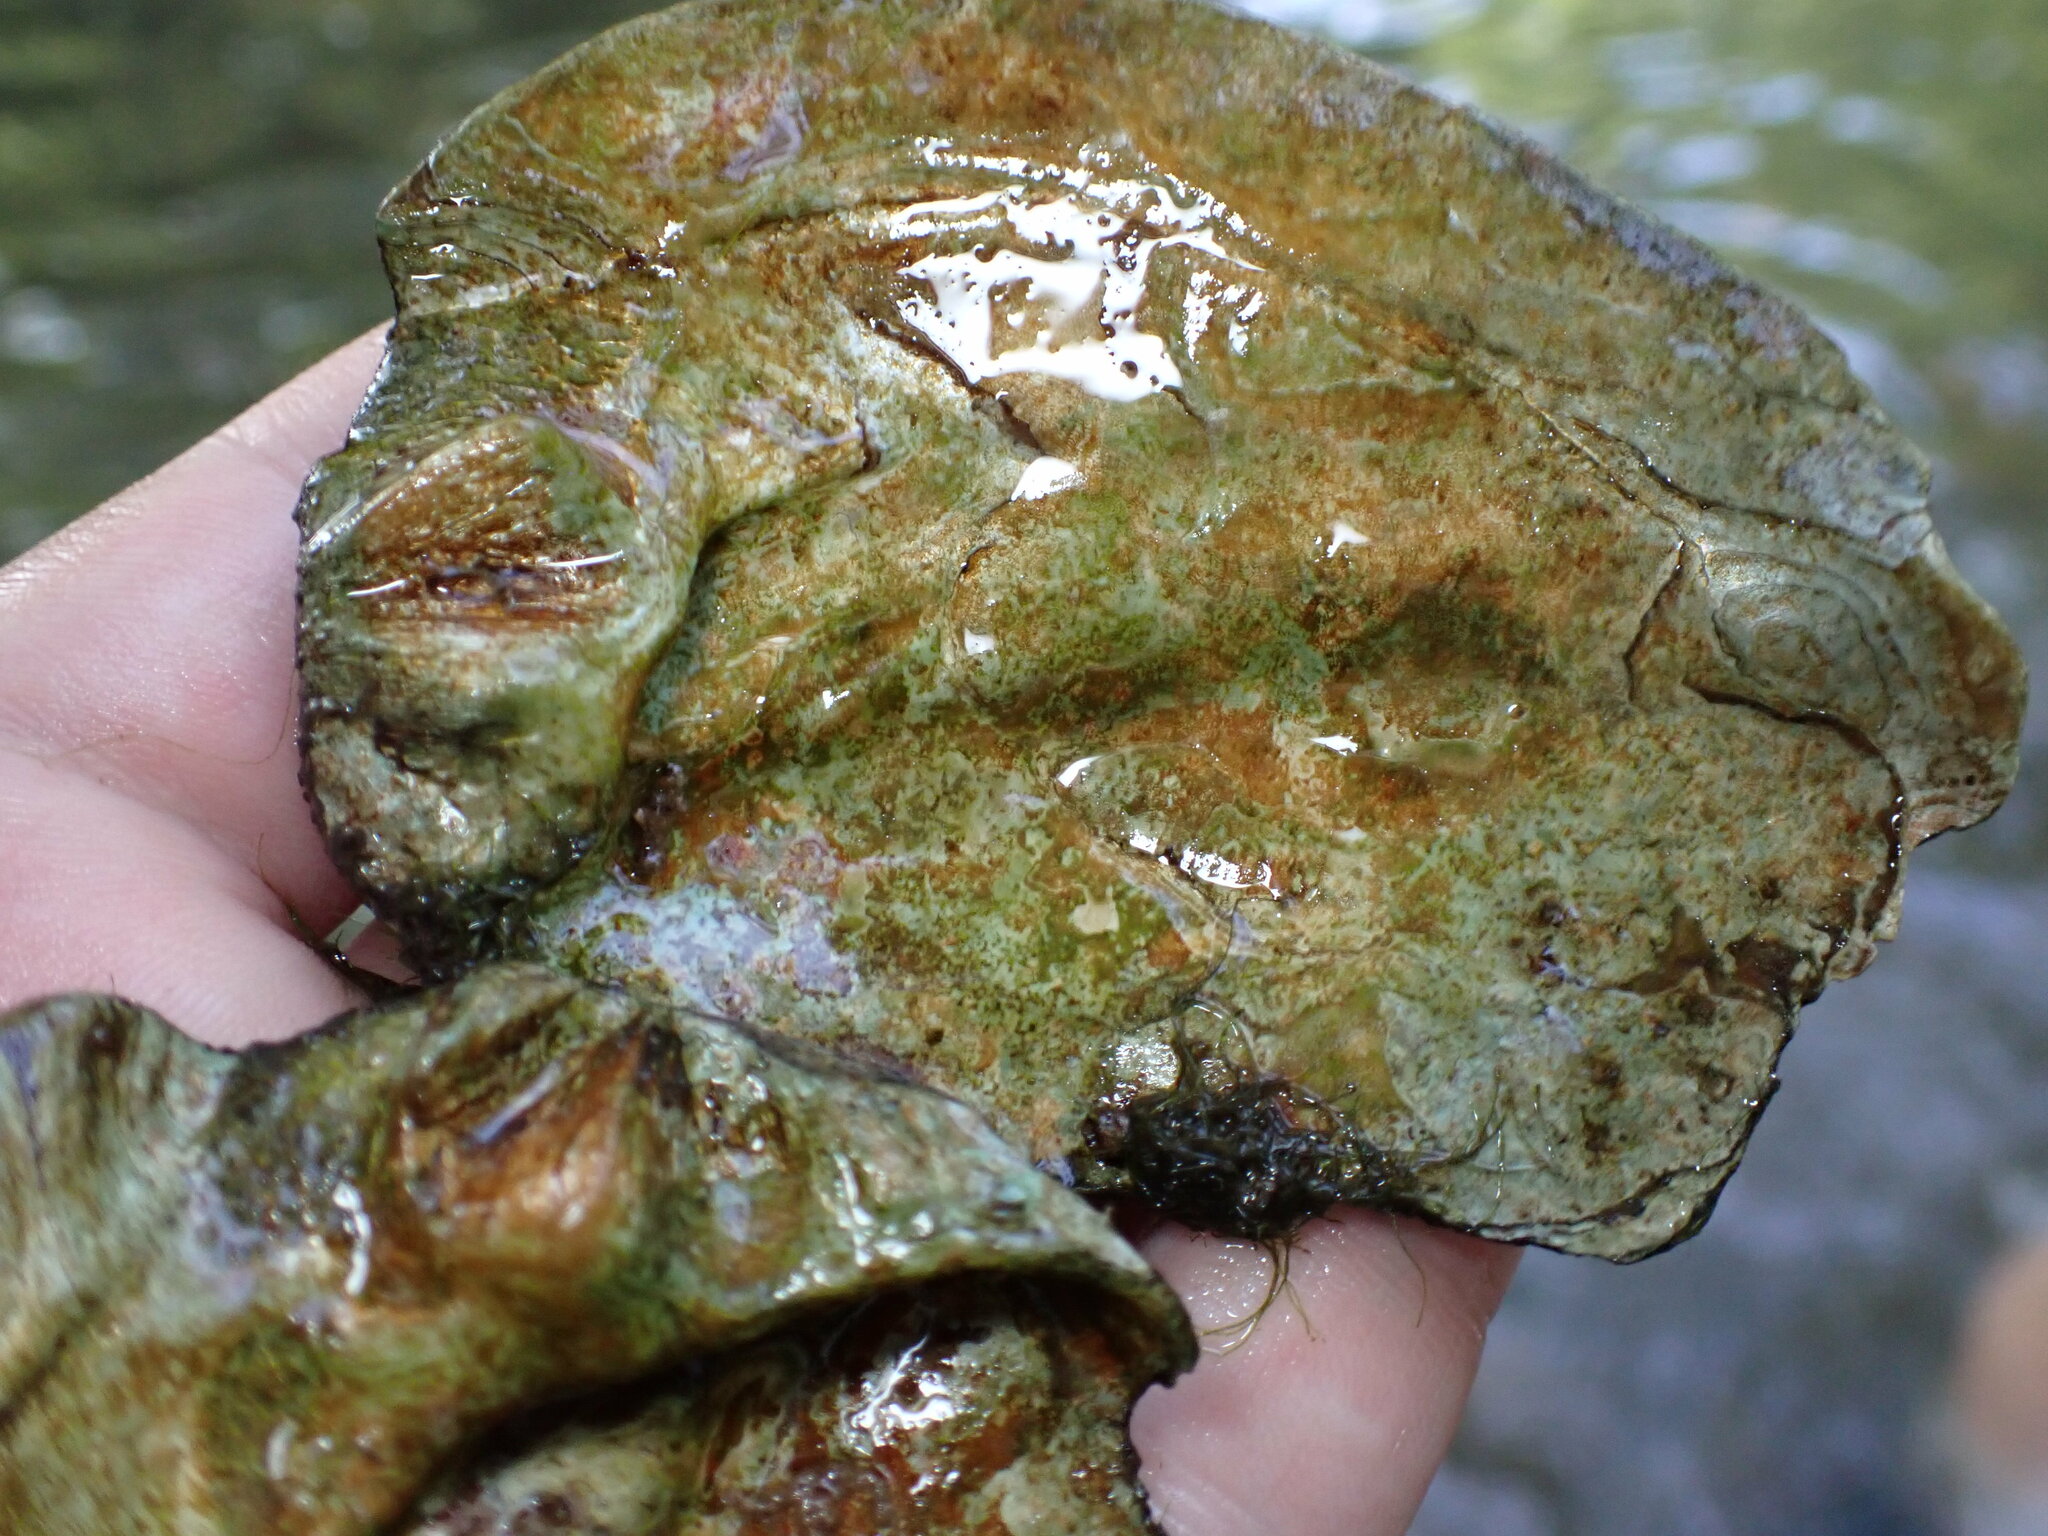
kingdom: Animalia
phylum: Mollusca
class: Bivalvia
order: Unionida
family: Unionidae
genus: Amblema
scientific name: Amblema plicata
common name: Threeridge
